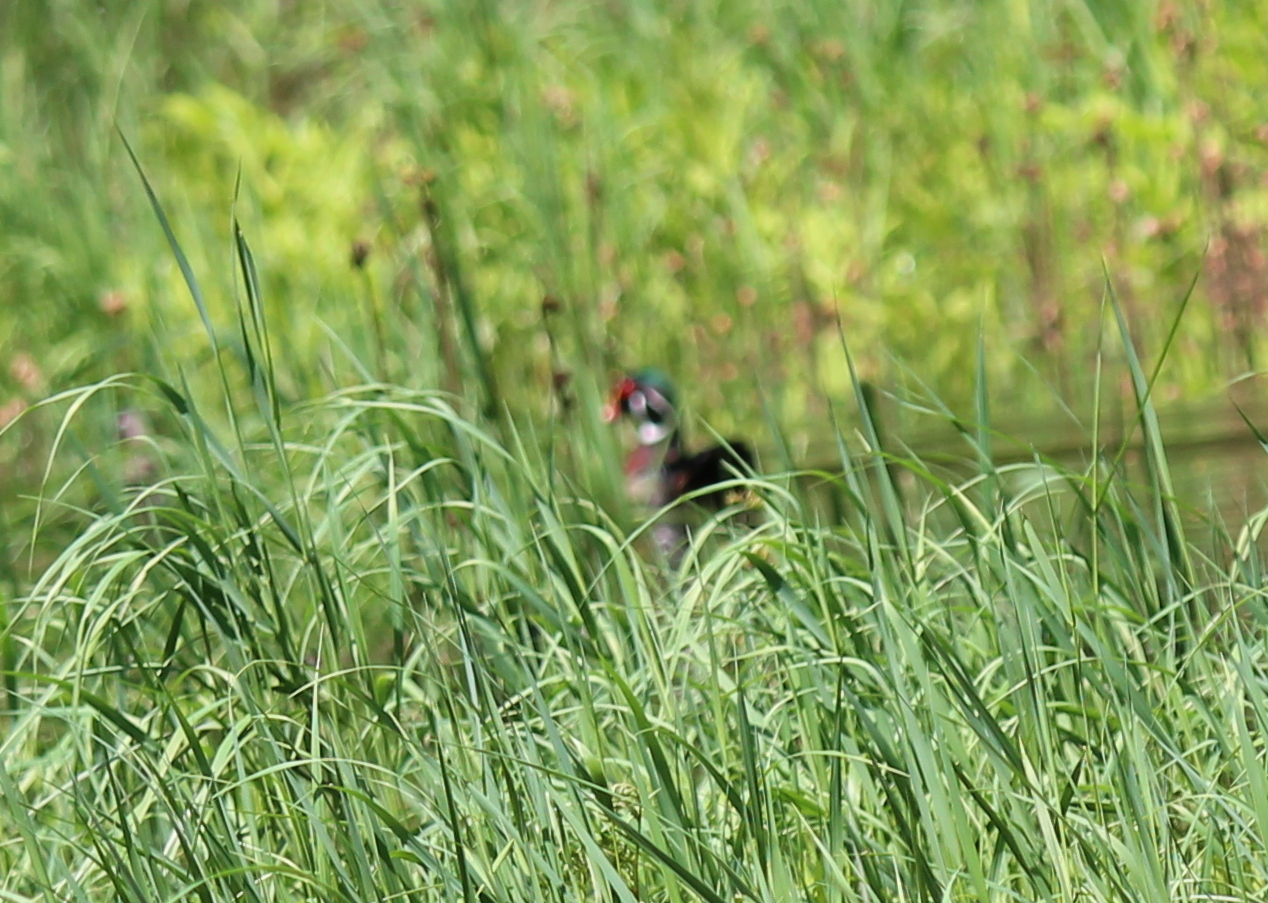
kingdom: Animalia
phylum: Chordata
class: Aves
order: Anseriformes
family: Anatidae
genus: Aix
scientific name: Aix sponsa
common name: Wood duck
